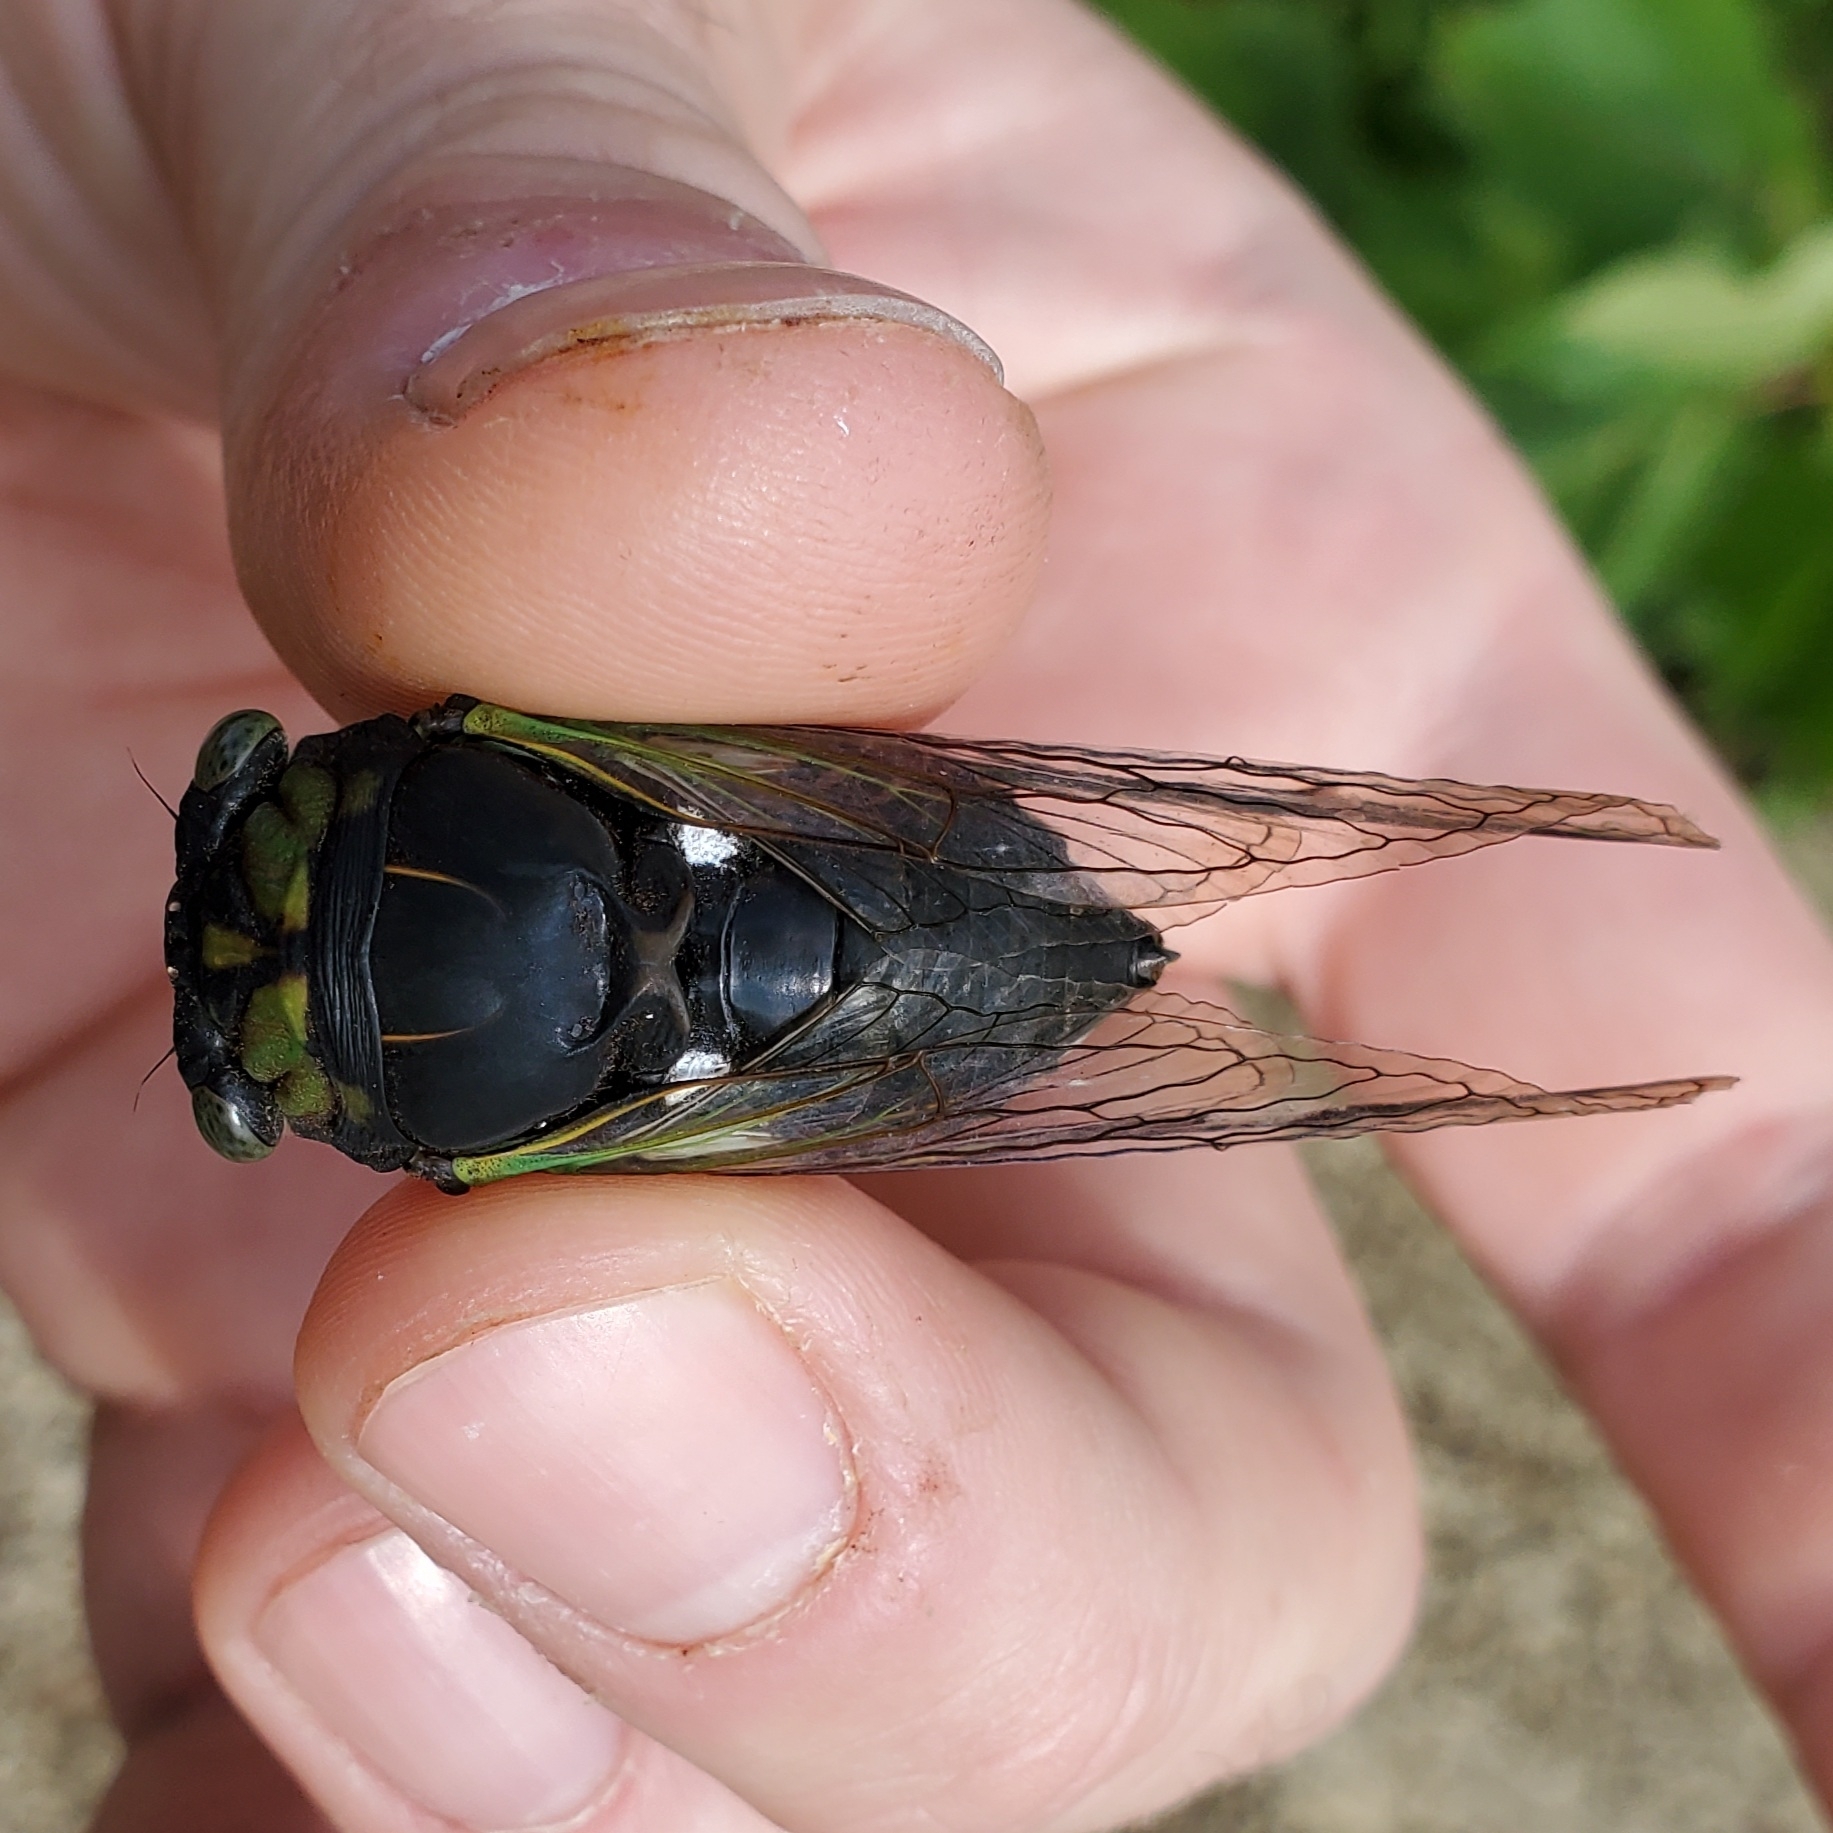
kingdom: Animalia
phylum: Arthropoda
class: Insecta
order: Hemiptera
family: Cicadidae
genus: Neotibicen
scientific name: Neotibicen tibicen
